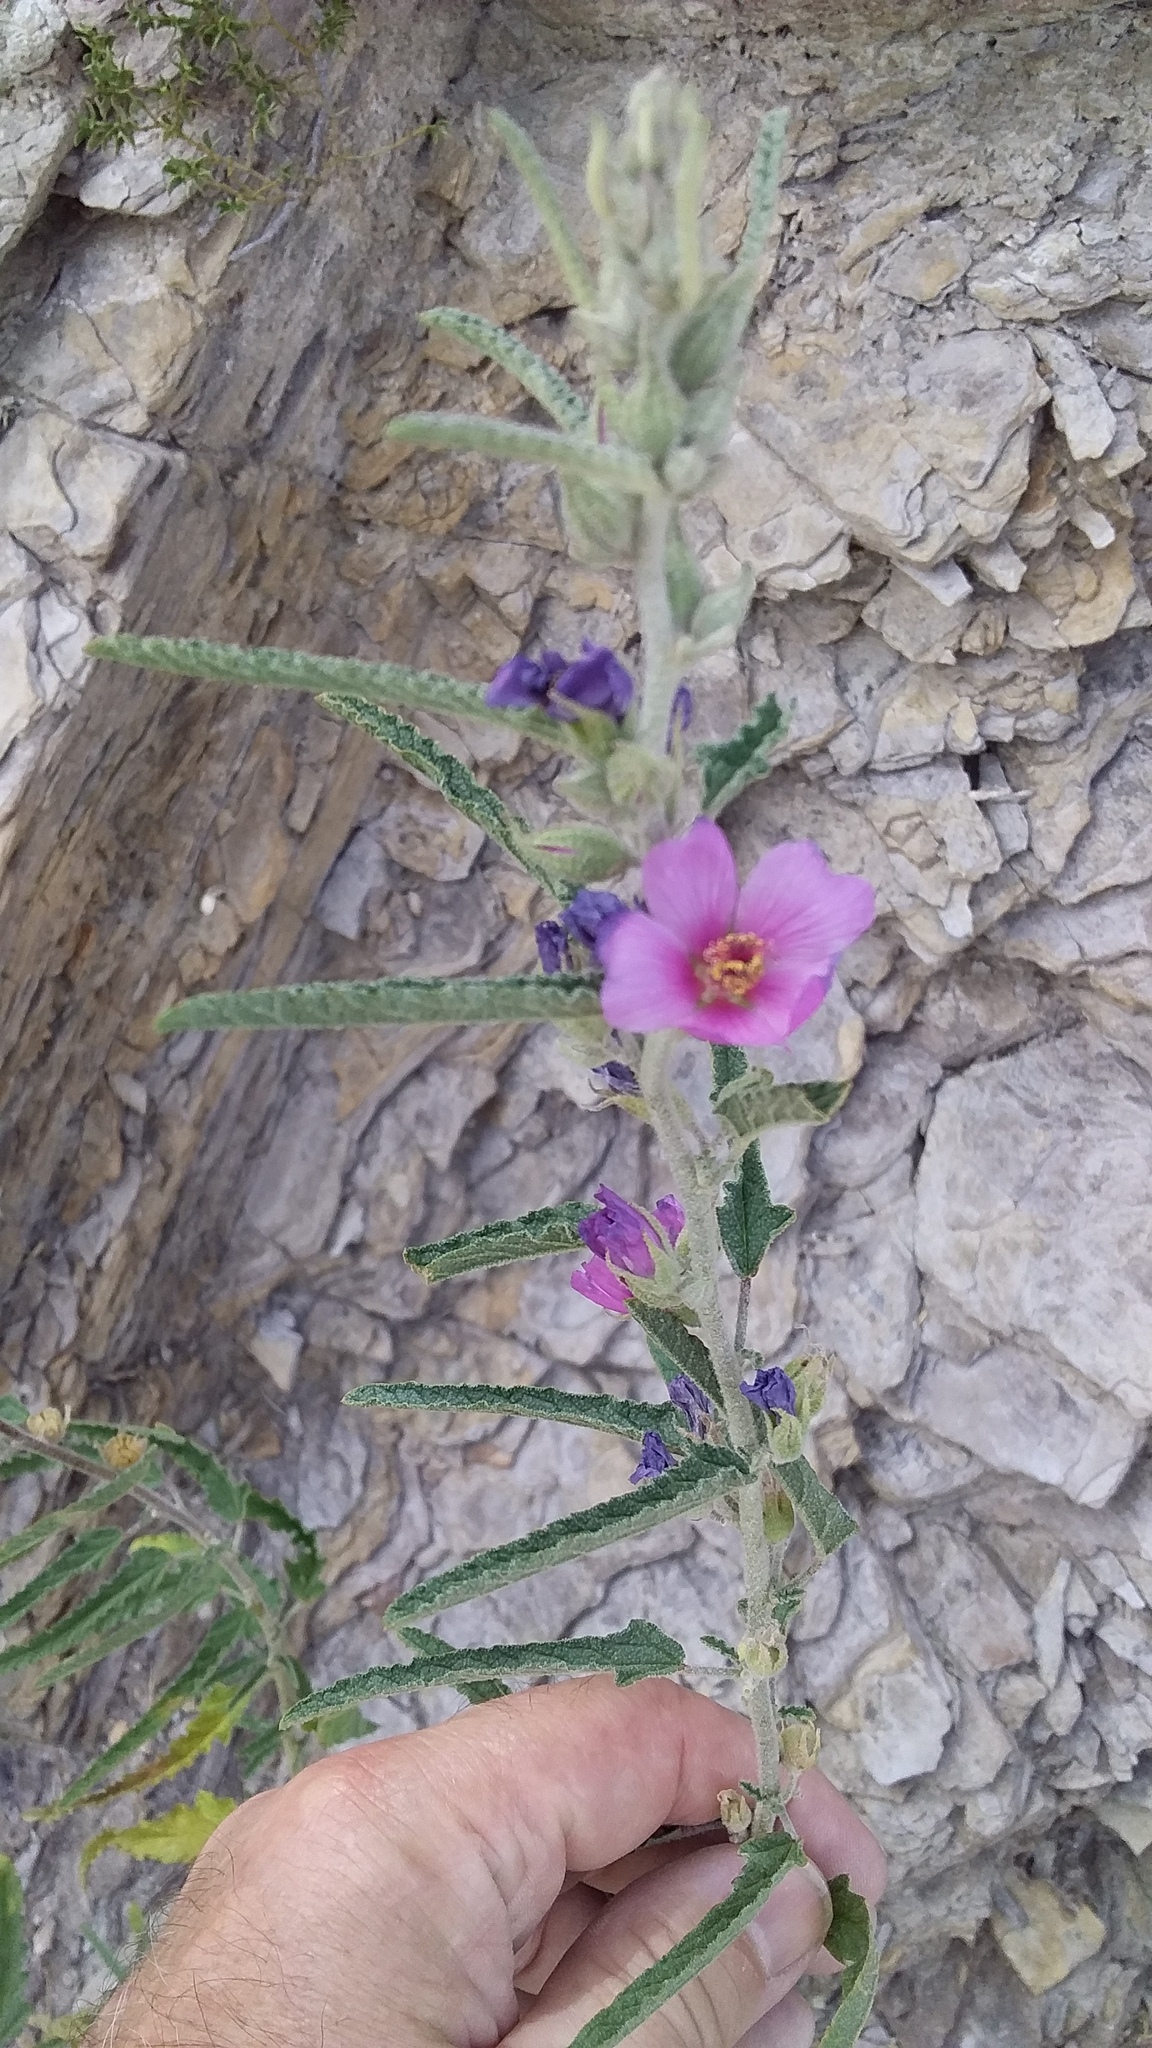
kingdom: Plantae
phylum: Tracheophyta
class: Magnoliopsida
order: Malvales
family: Malvaceae
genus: Sphaeralcea
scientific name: Sphaeralcea angustifolia
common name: Copper globe-mallow
